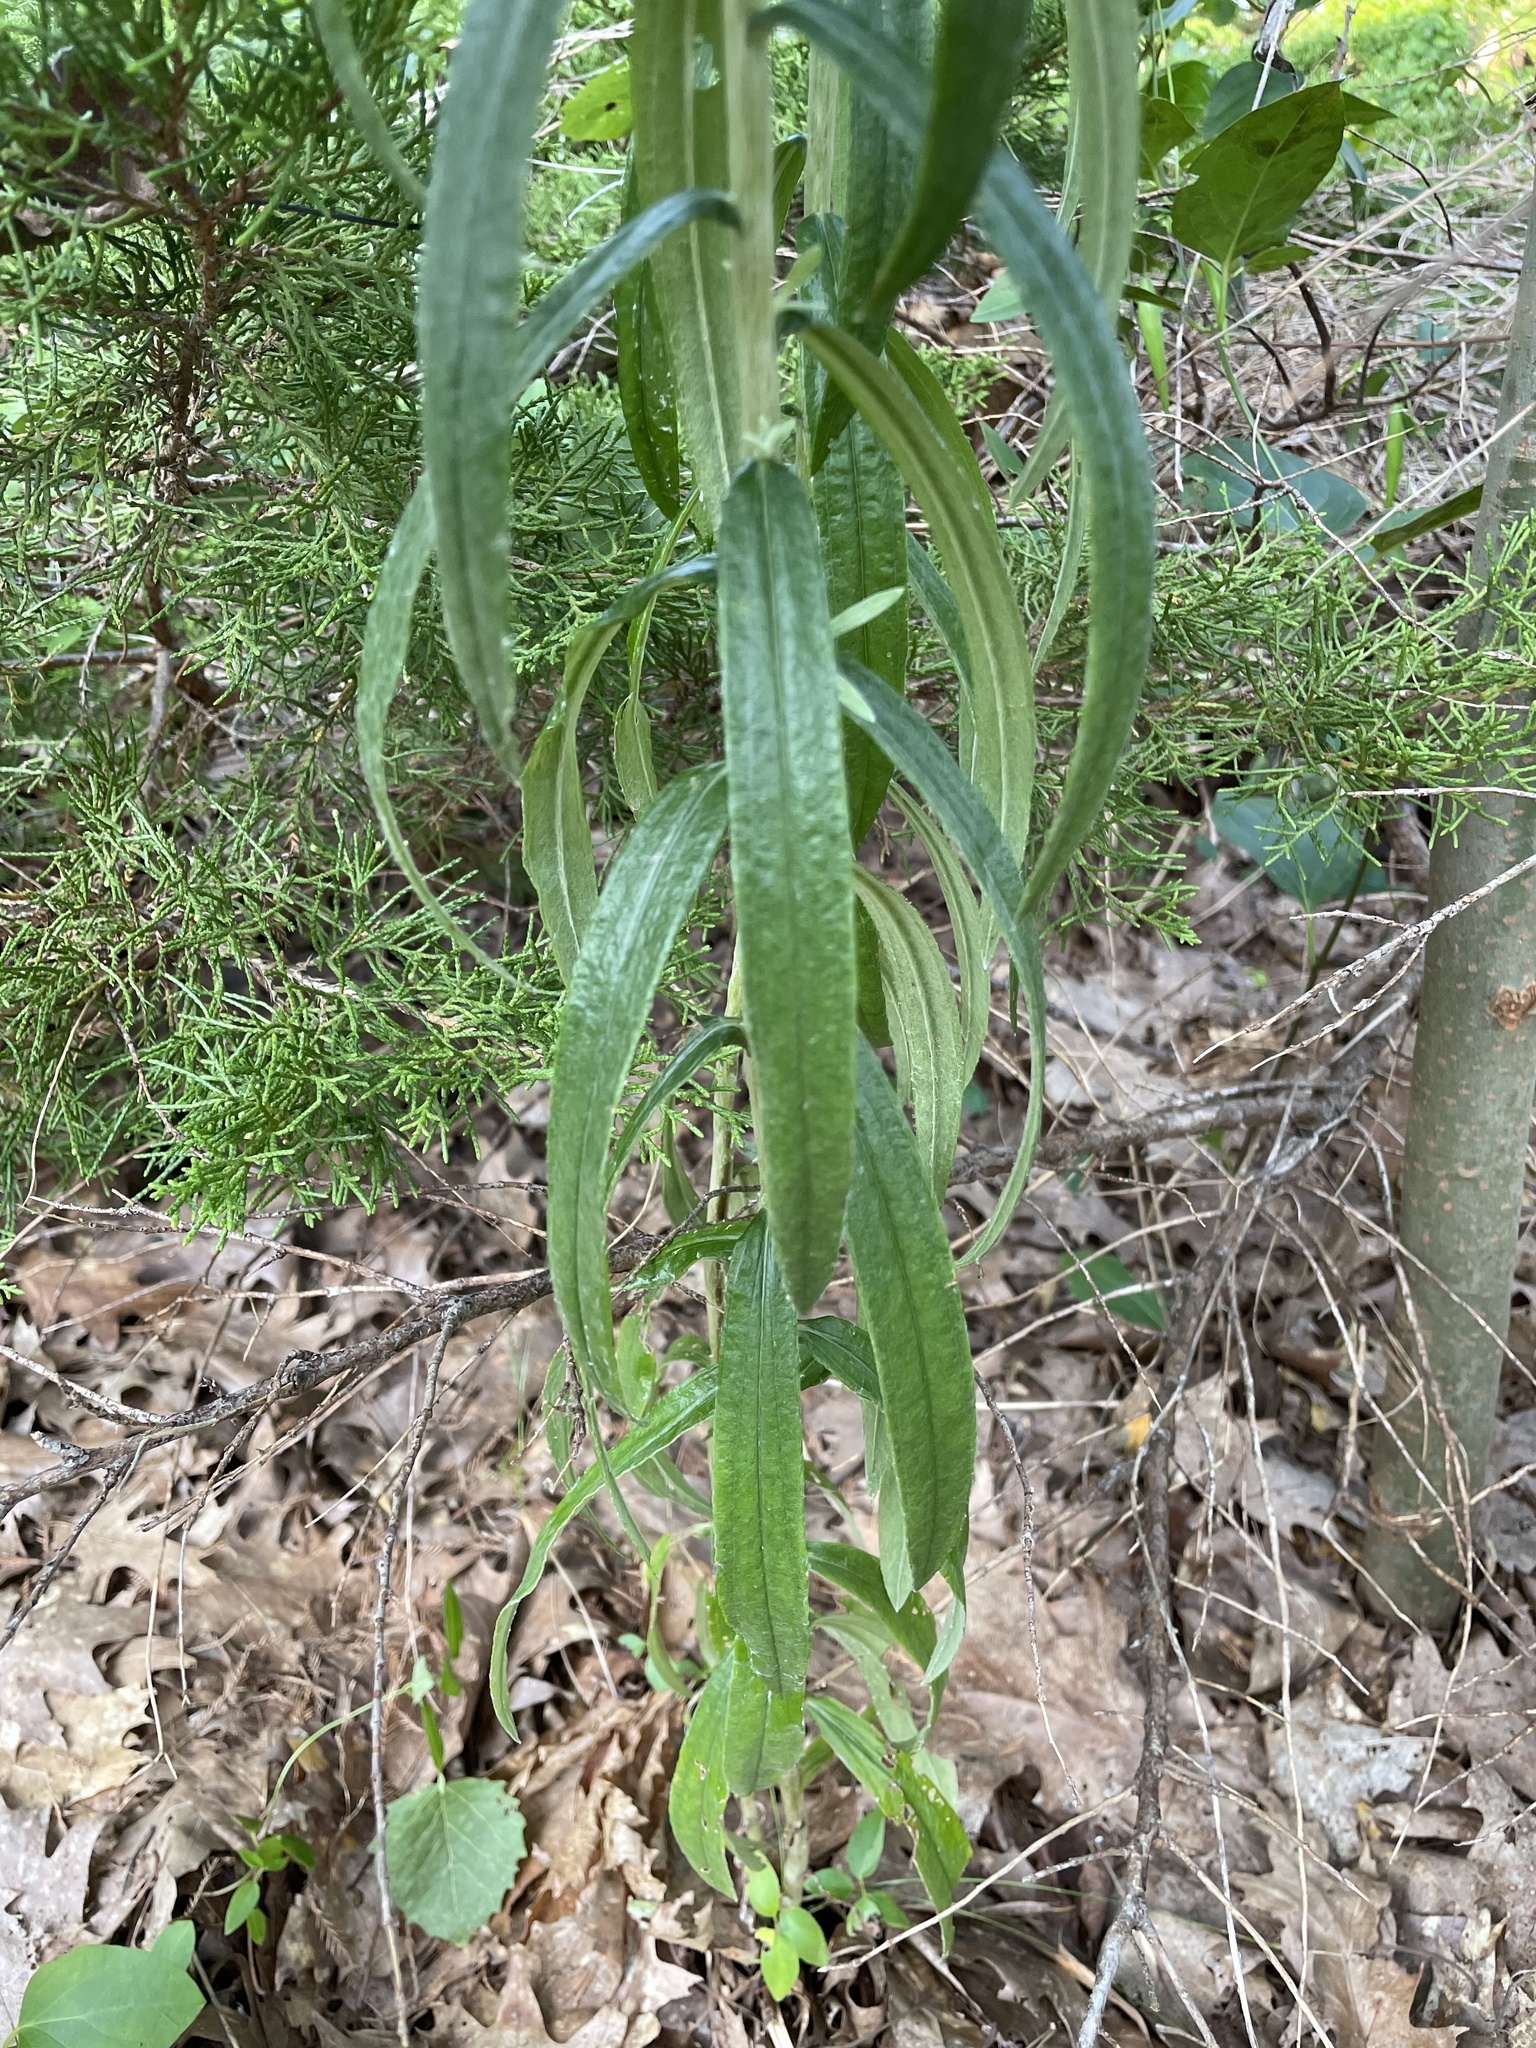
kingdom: Plantae
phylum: Tracheophyta
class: Magnoliopsida
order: Asterales
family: Asteraceae
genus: Anaphalis
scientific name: Anaphalis margaritacea
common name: Pearly everlasting
